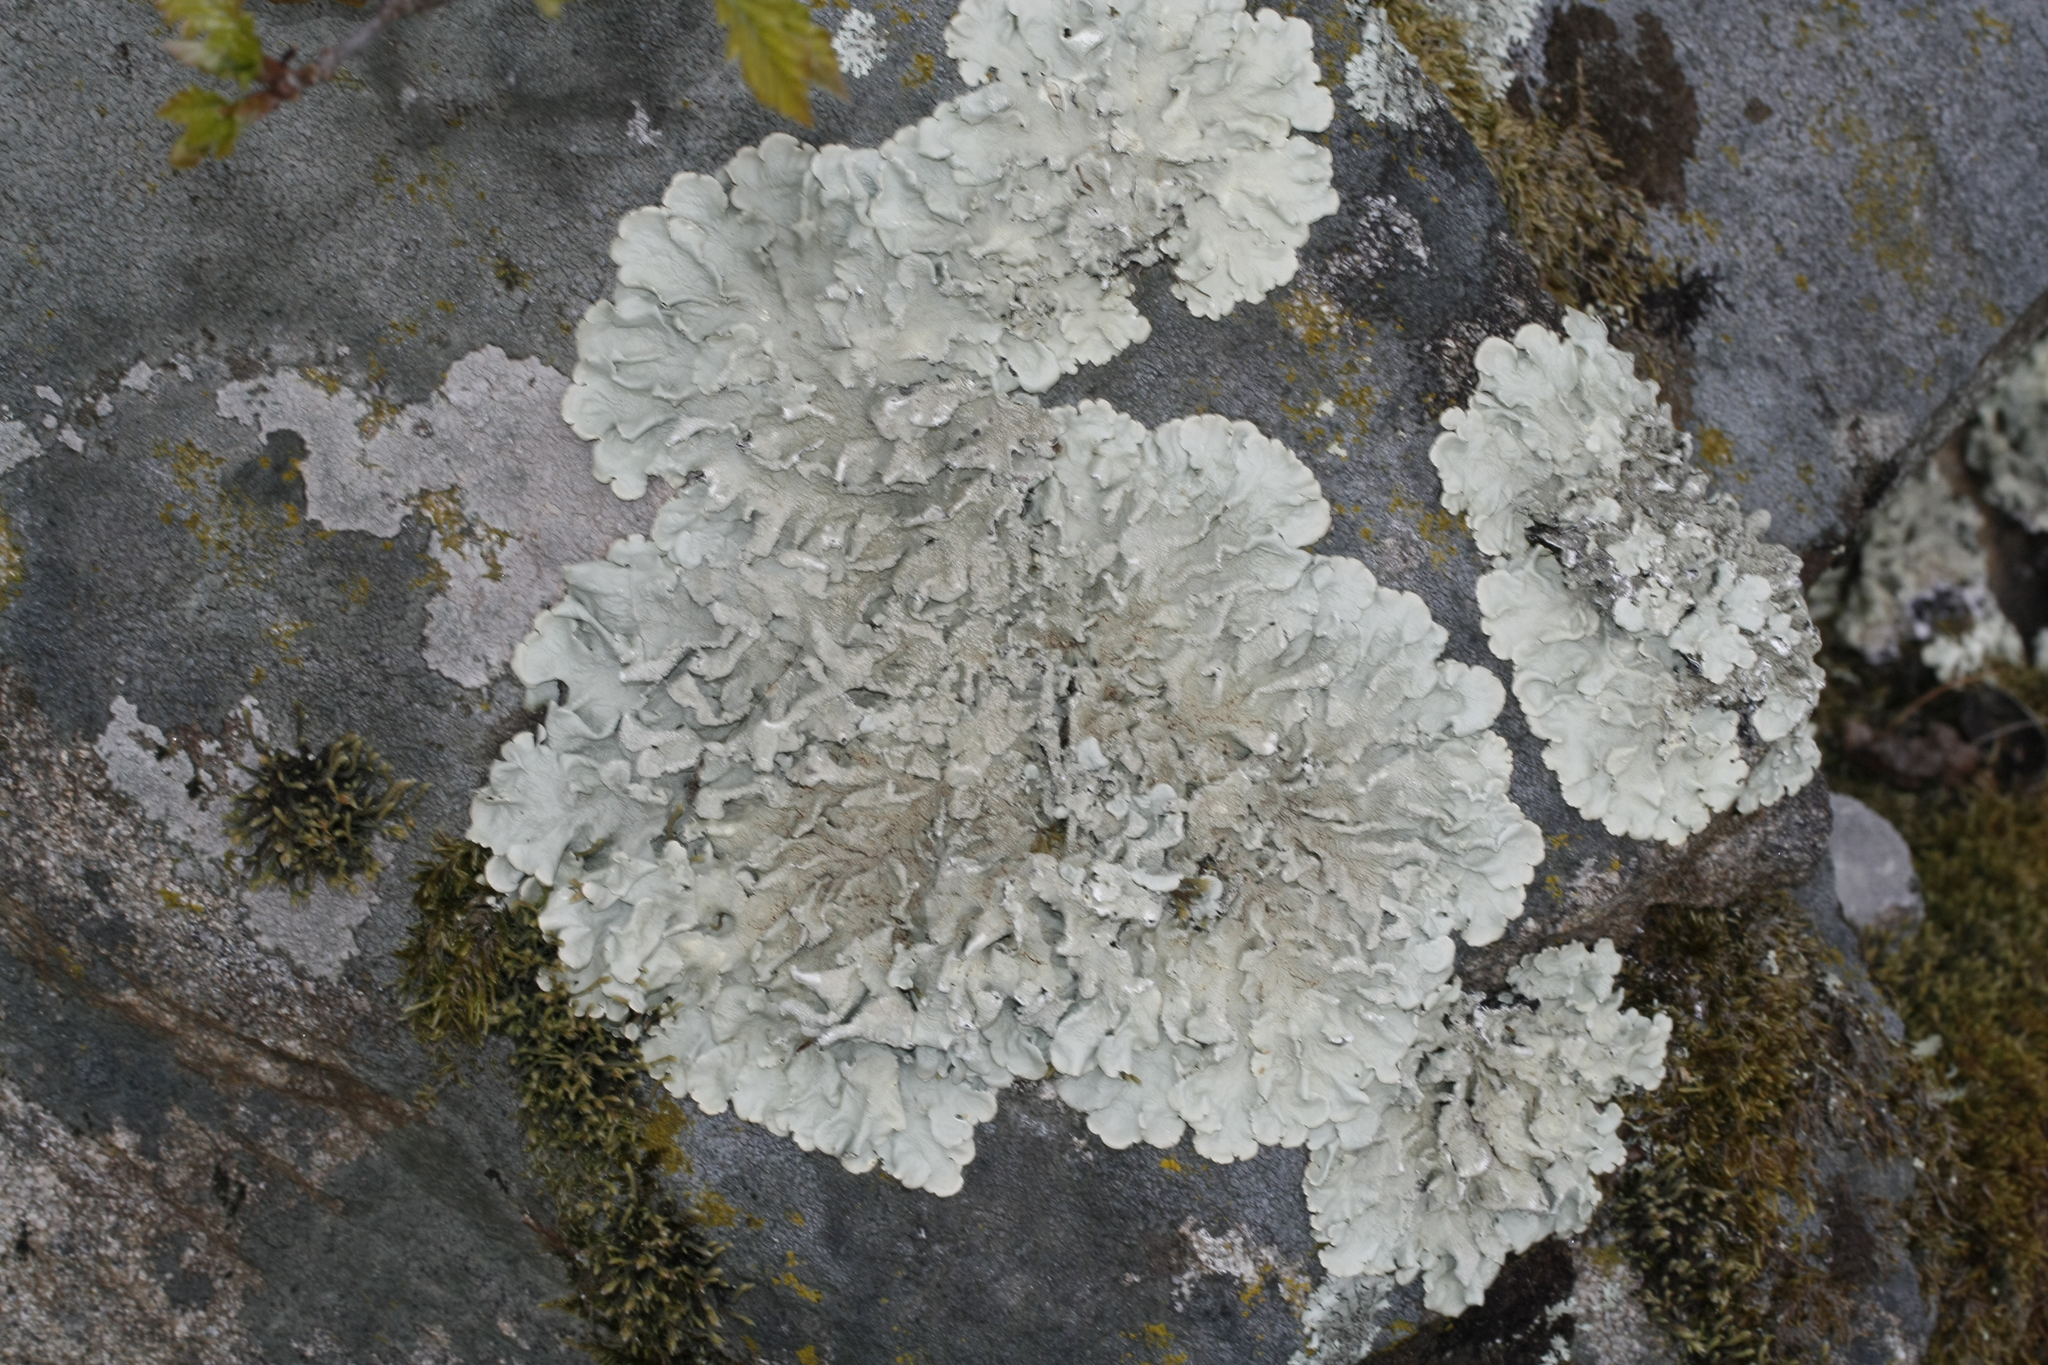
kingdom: Fungi
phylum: Ascomycota
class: Lecanoromycetes
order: Lecanorales
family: Parmeliaceae
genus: Flavoparmelia
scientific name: Flavoparmelia caperata
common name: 40-mile per hour lichen
